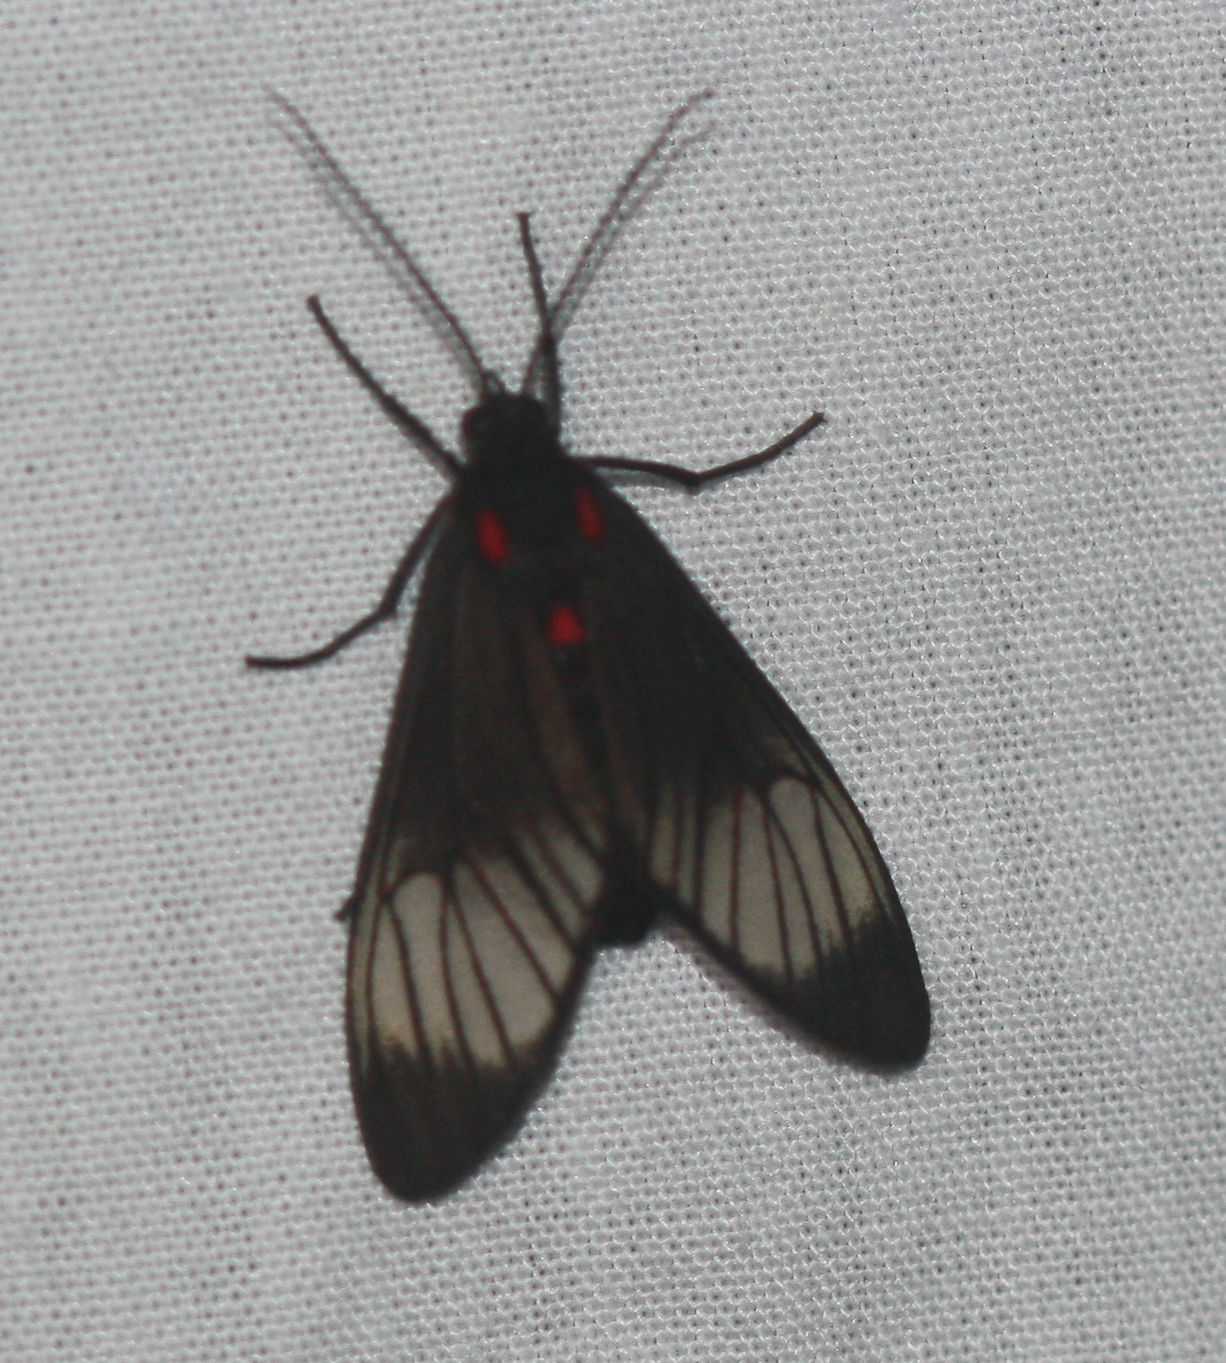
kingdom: Animalia
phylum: Arthropoda
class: Insecta
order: Lepidoptera
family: Erebidae
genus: Hyperphara
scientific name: Hyperphara clusia
